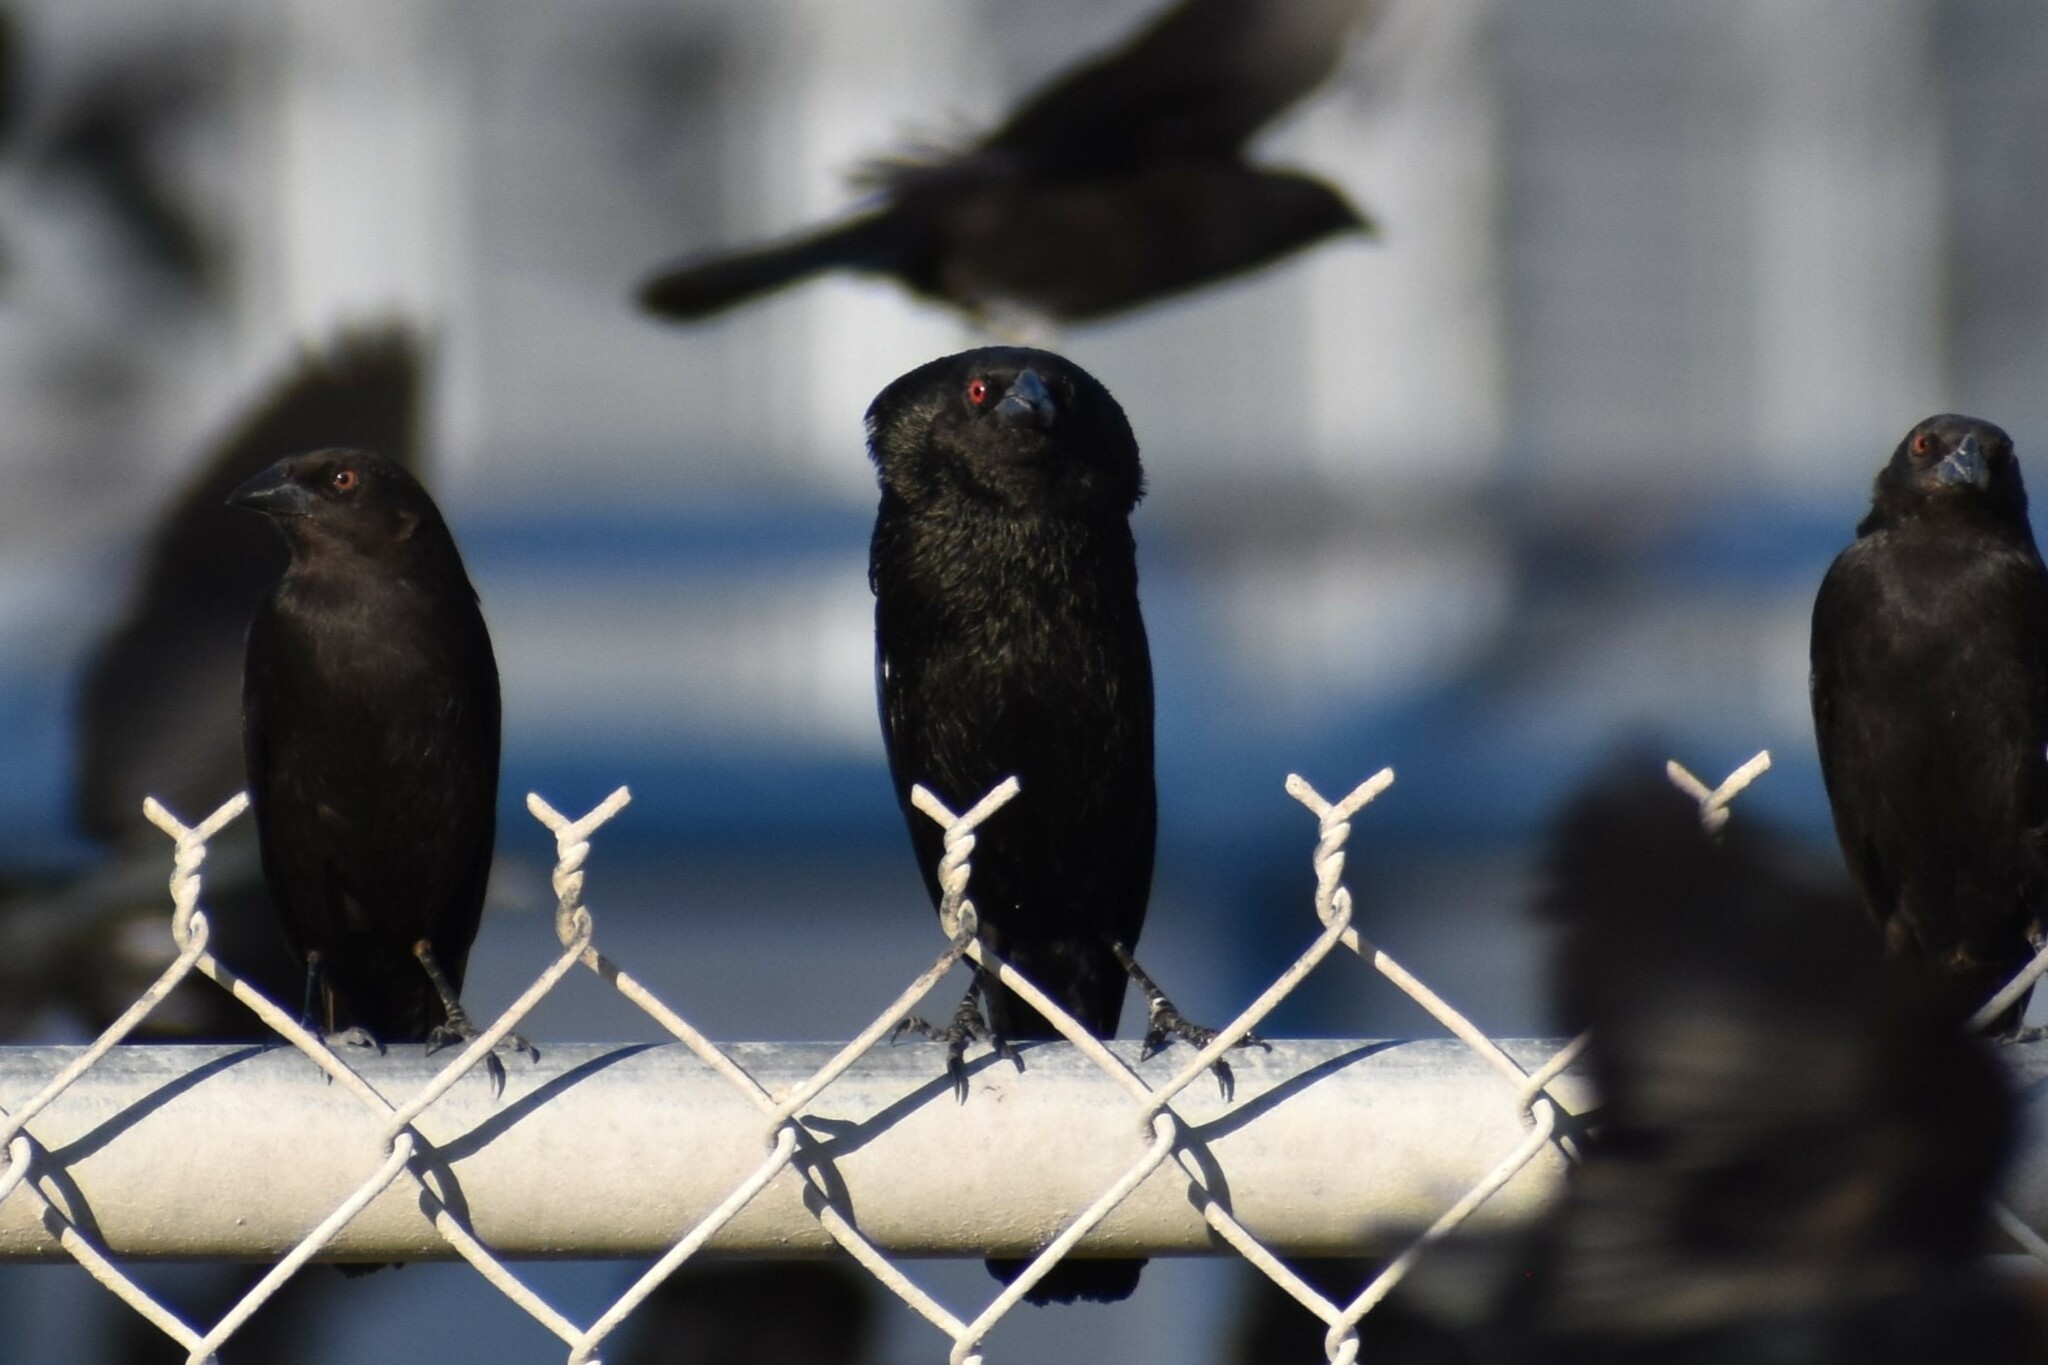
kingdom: Animalia
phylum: Chordata
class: Aves
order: Passeriformes
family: Icteridae
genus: Molothrus
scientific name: Molothrus aeneus
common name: Bronzed cowbird
